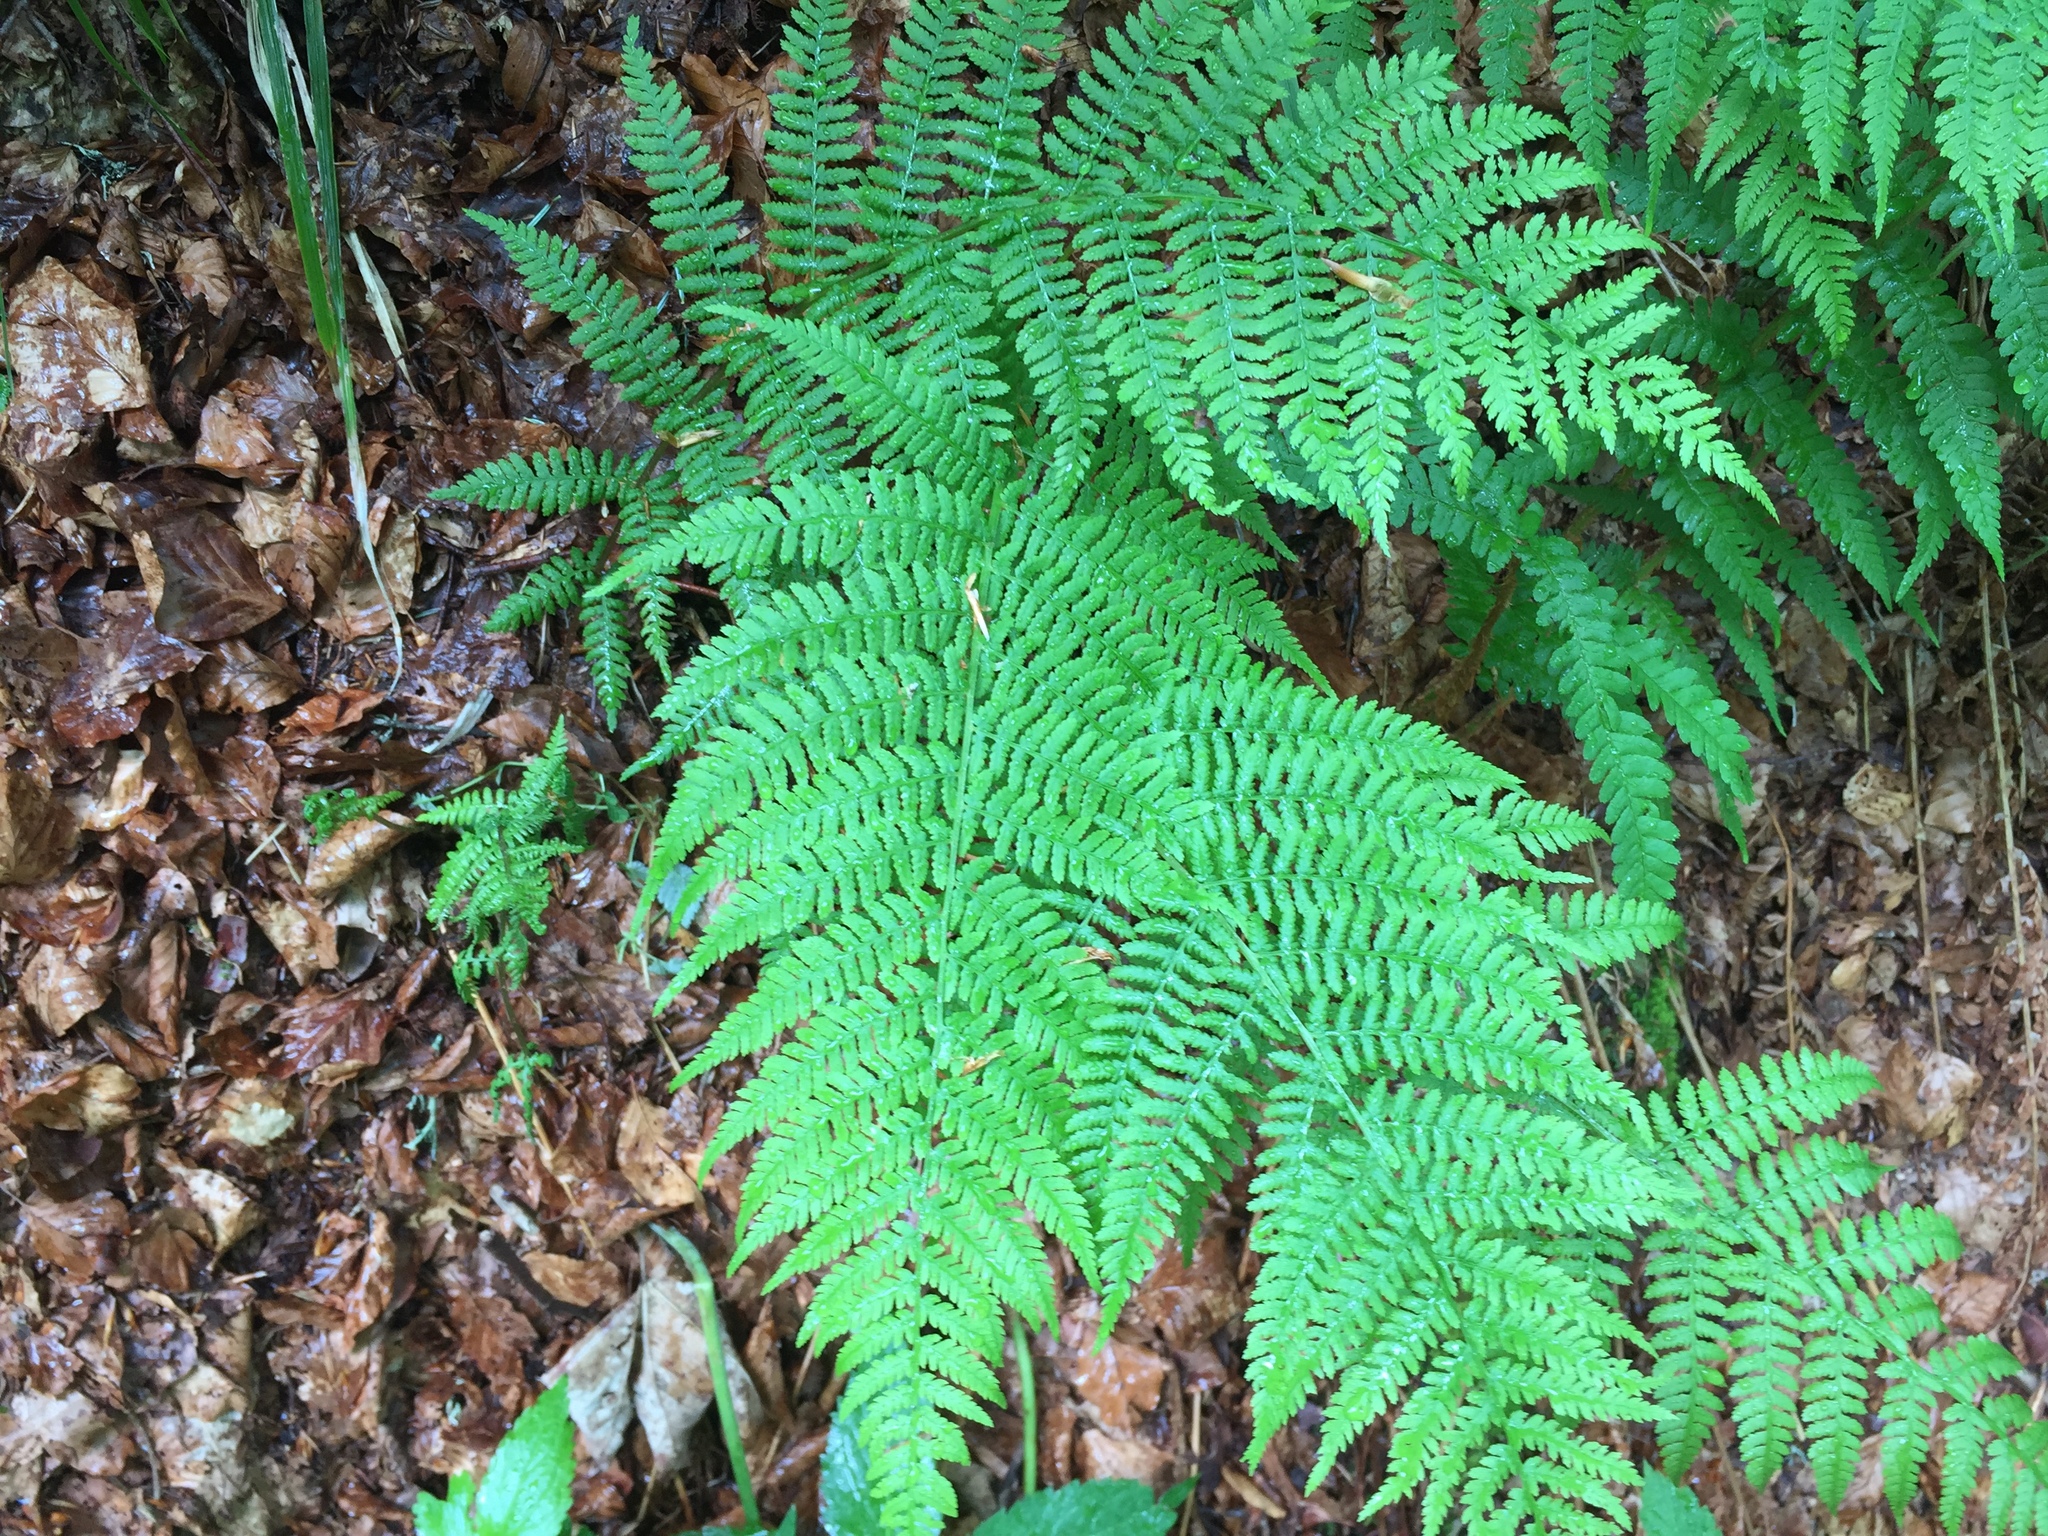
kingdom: Plantae
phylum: Tracheophyta
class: Polypodiopsida
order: Polypodiales
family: Athyriaceae
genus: Athyrium
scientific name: Athyrium filix-femina
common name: Lady fern
